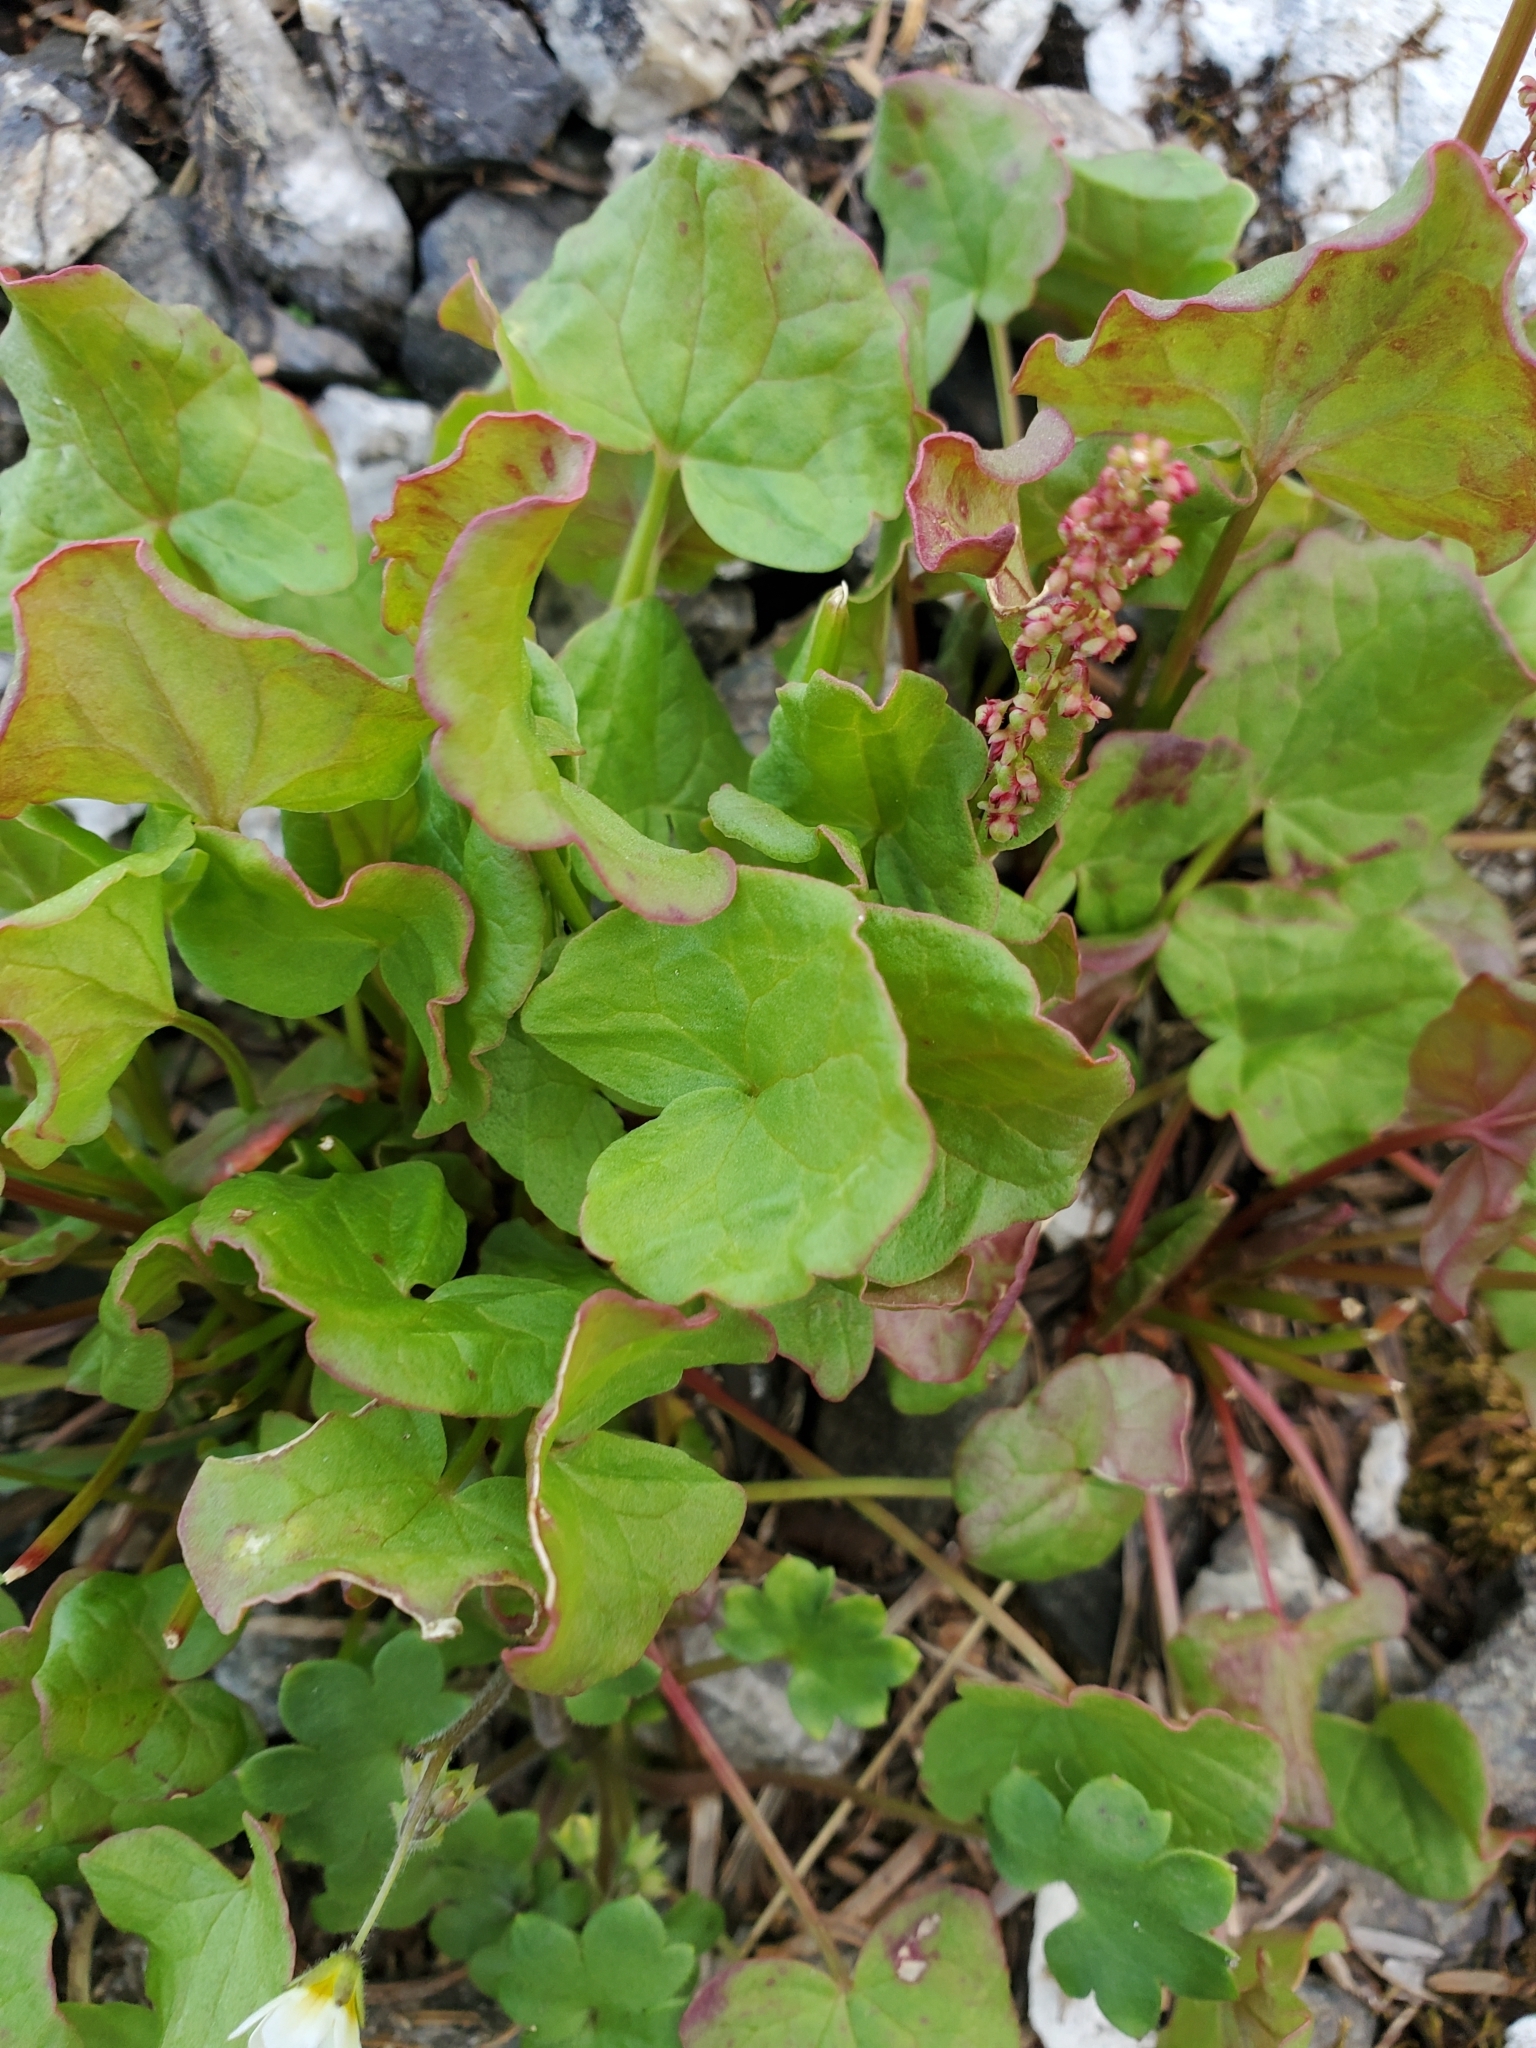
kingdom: Plantae
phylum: Tracheophyta
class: Magnoliopsida
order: Caryophyllales
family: Polygonaceae
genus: Oxyria
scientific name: Oxyria digyna
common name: Alpine mountain-sorrel
